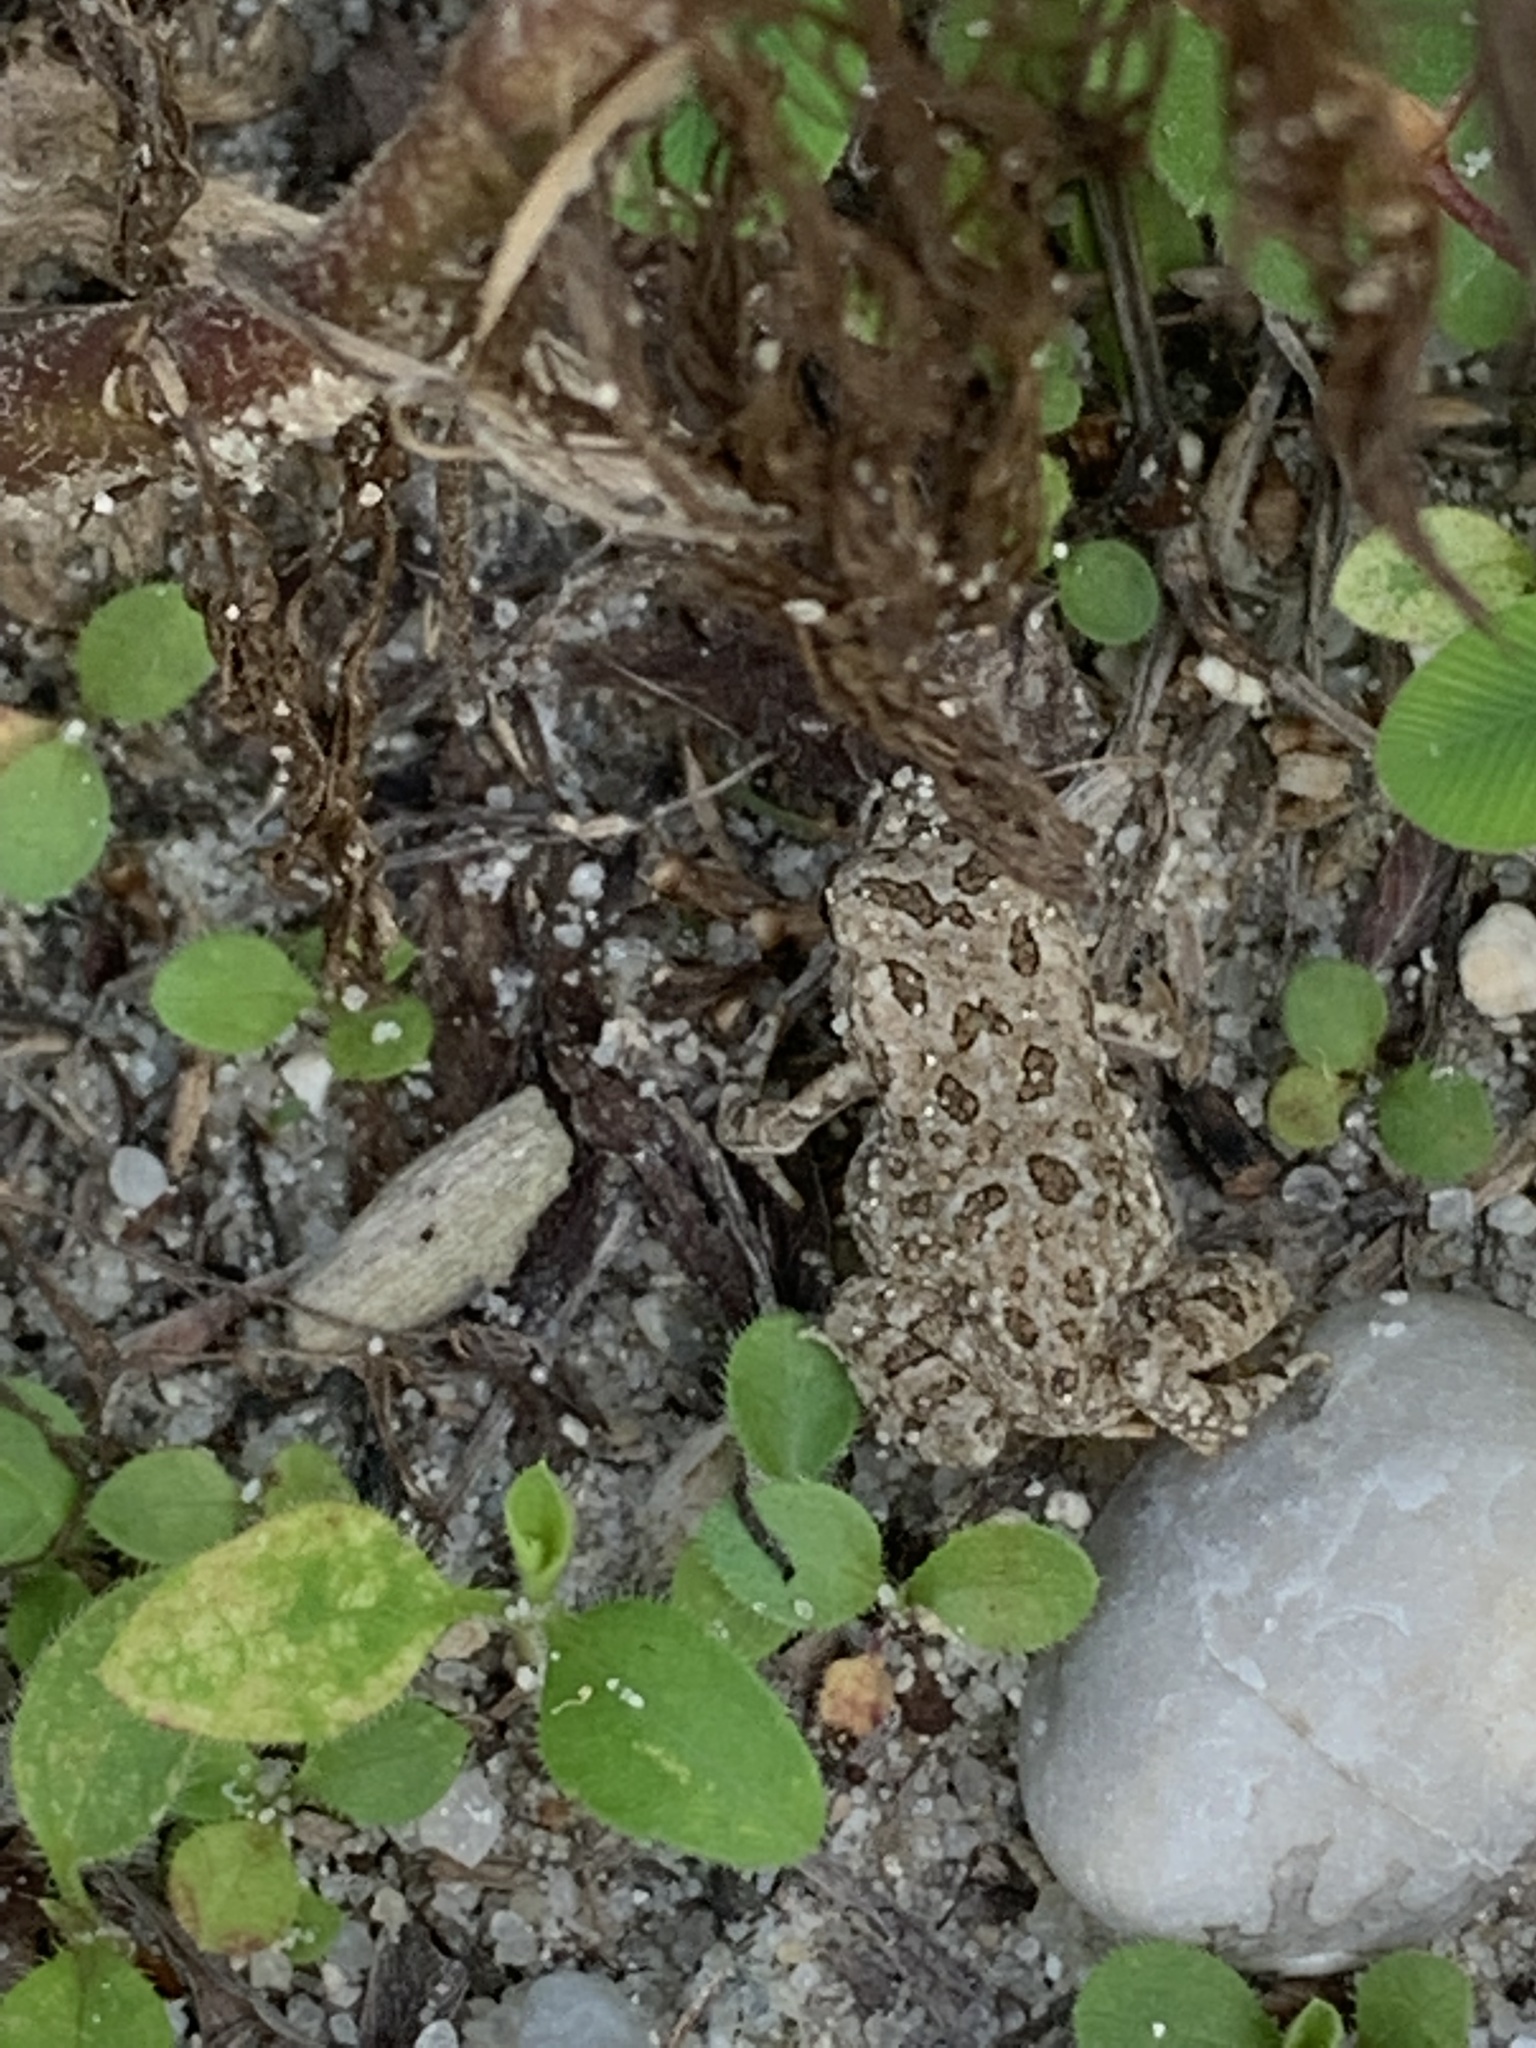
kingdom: Animalia
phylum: Chordata
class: Amphibia
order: Anura
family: Bufonidae
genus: Anaxyrus
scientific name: Anaxyrus fowleri
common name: Fowler's toad
